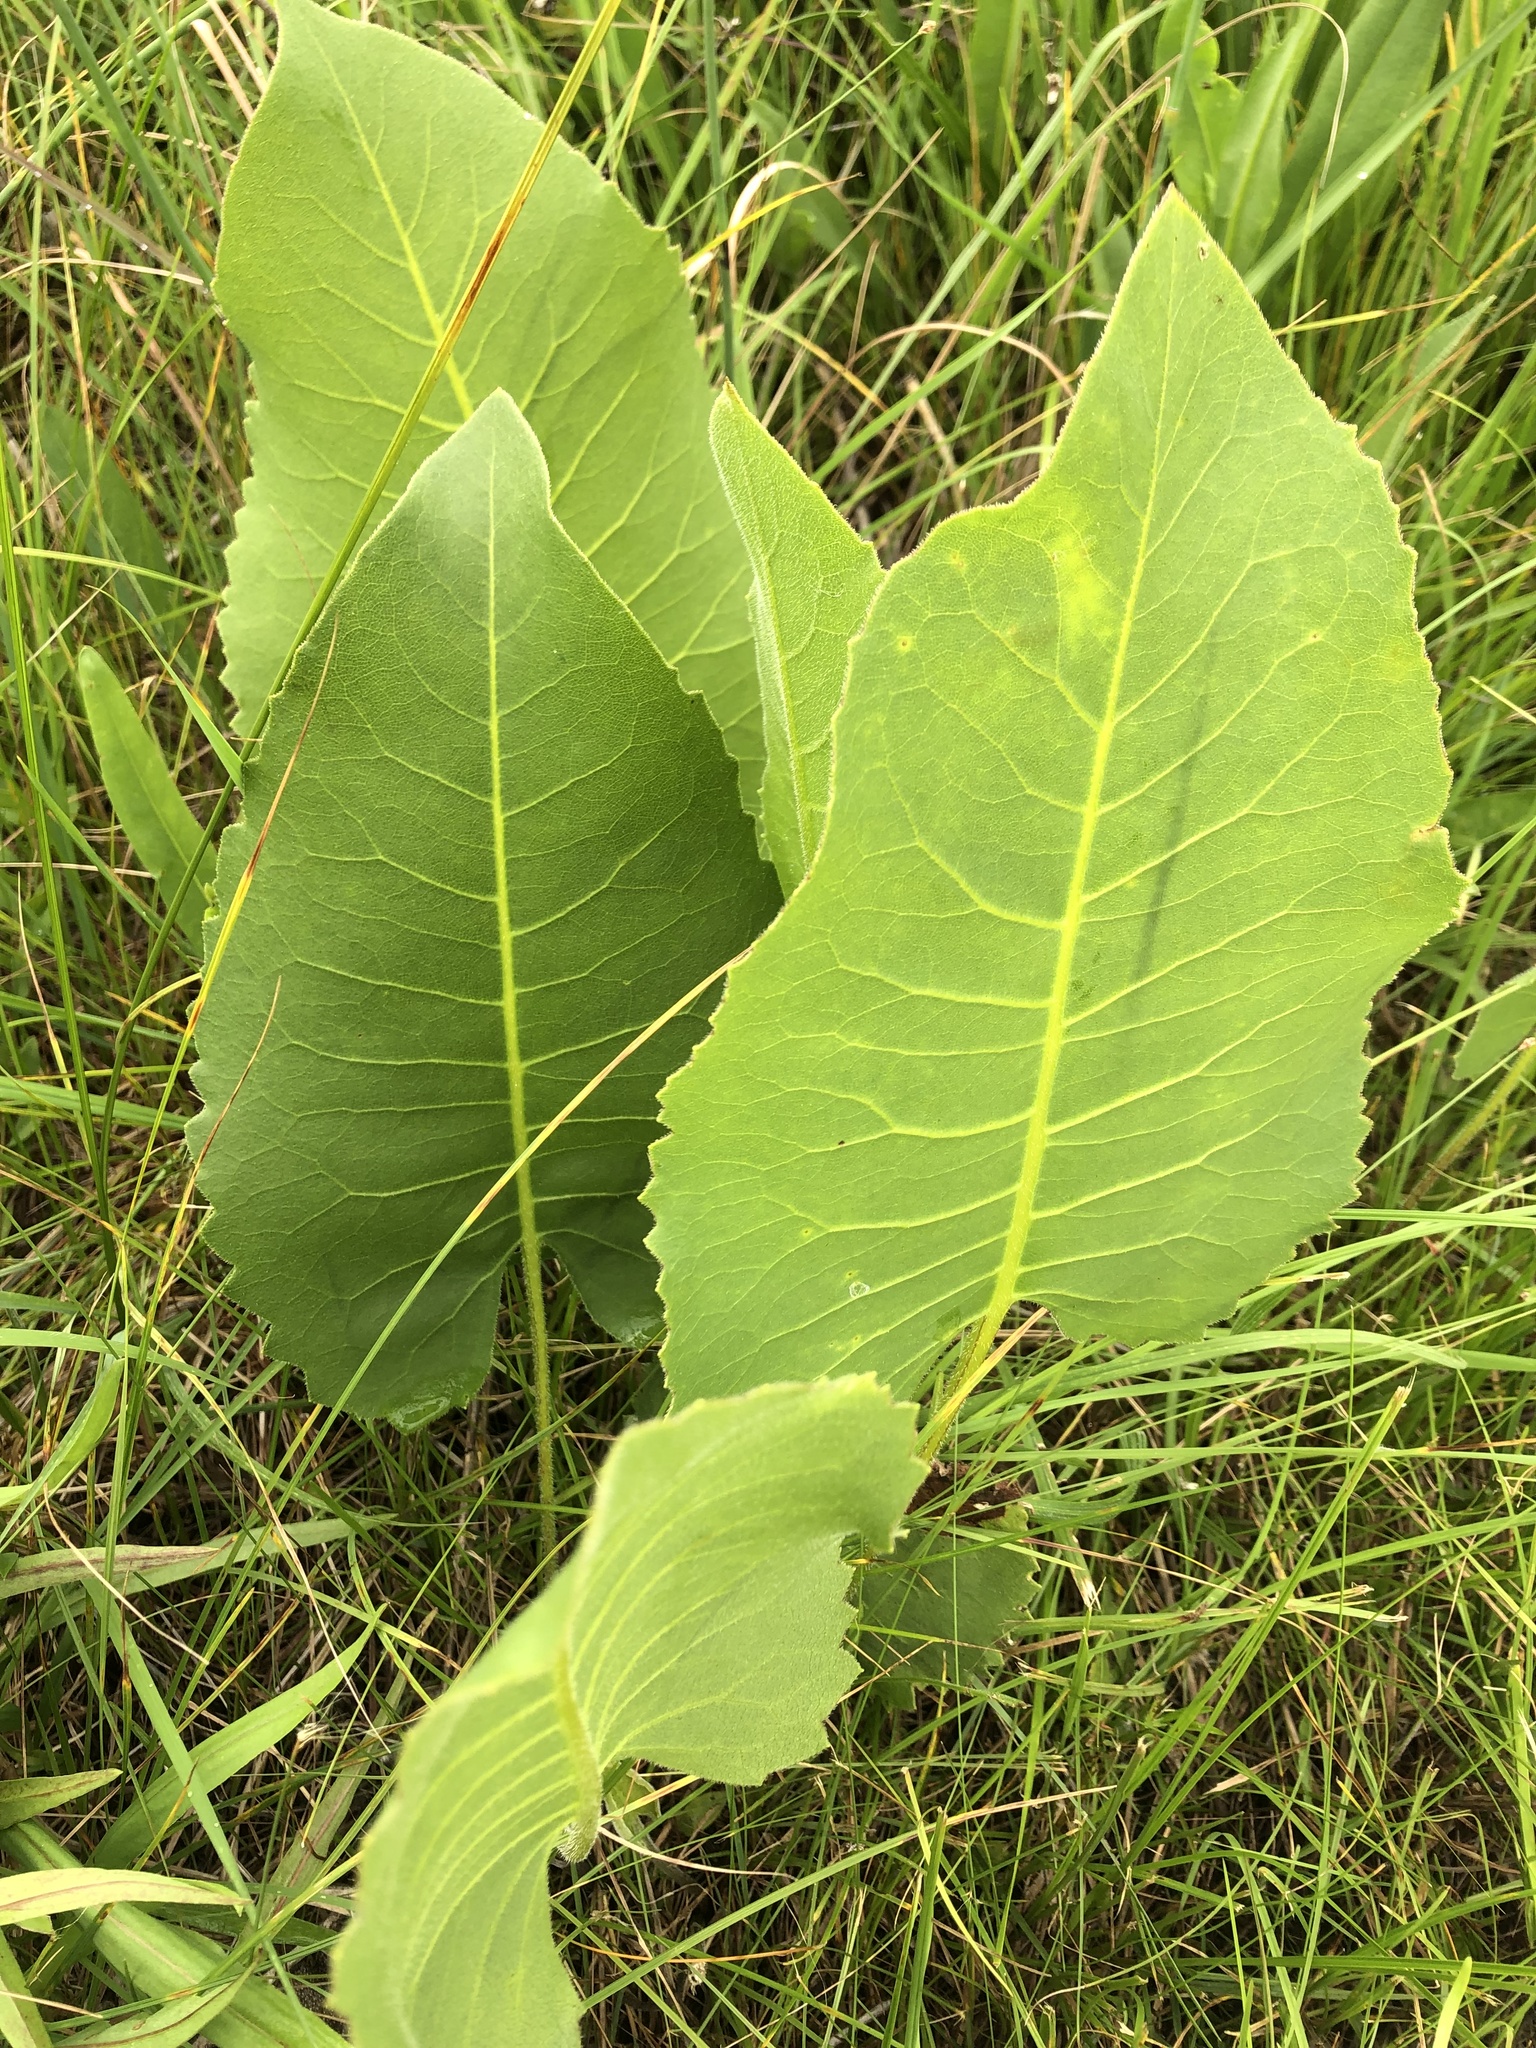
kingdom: Plantae
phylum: Tracheophyta
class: Magnoliopsida
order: Asterales
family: Asteraceae
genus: Silphium
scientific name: Silphium terebinthinaceum
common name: Basal-leaf rosinweed
